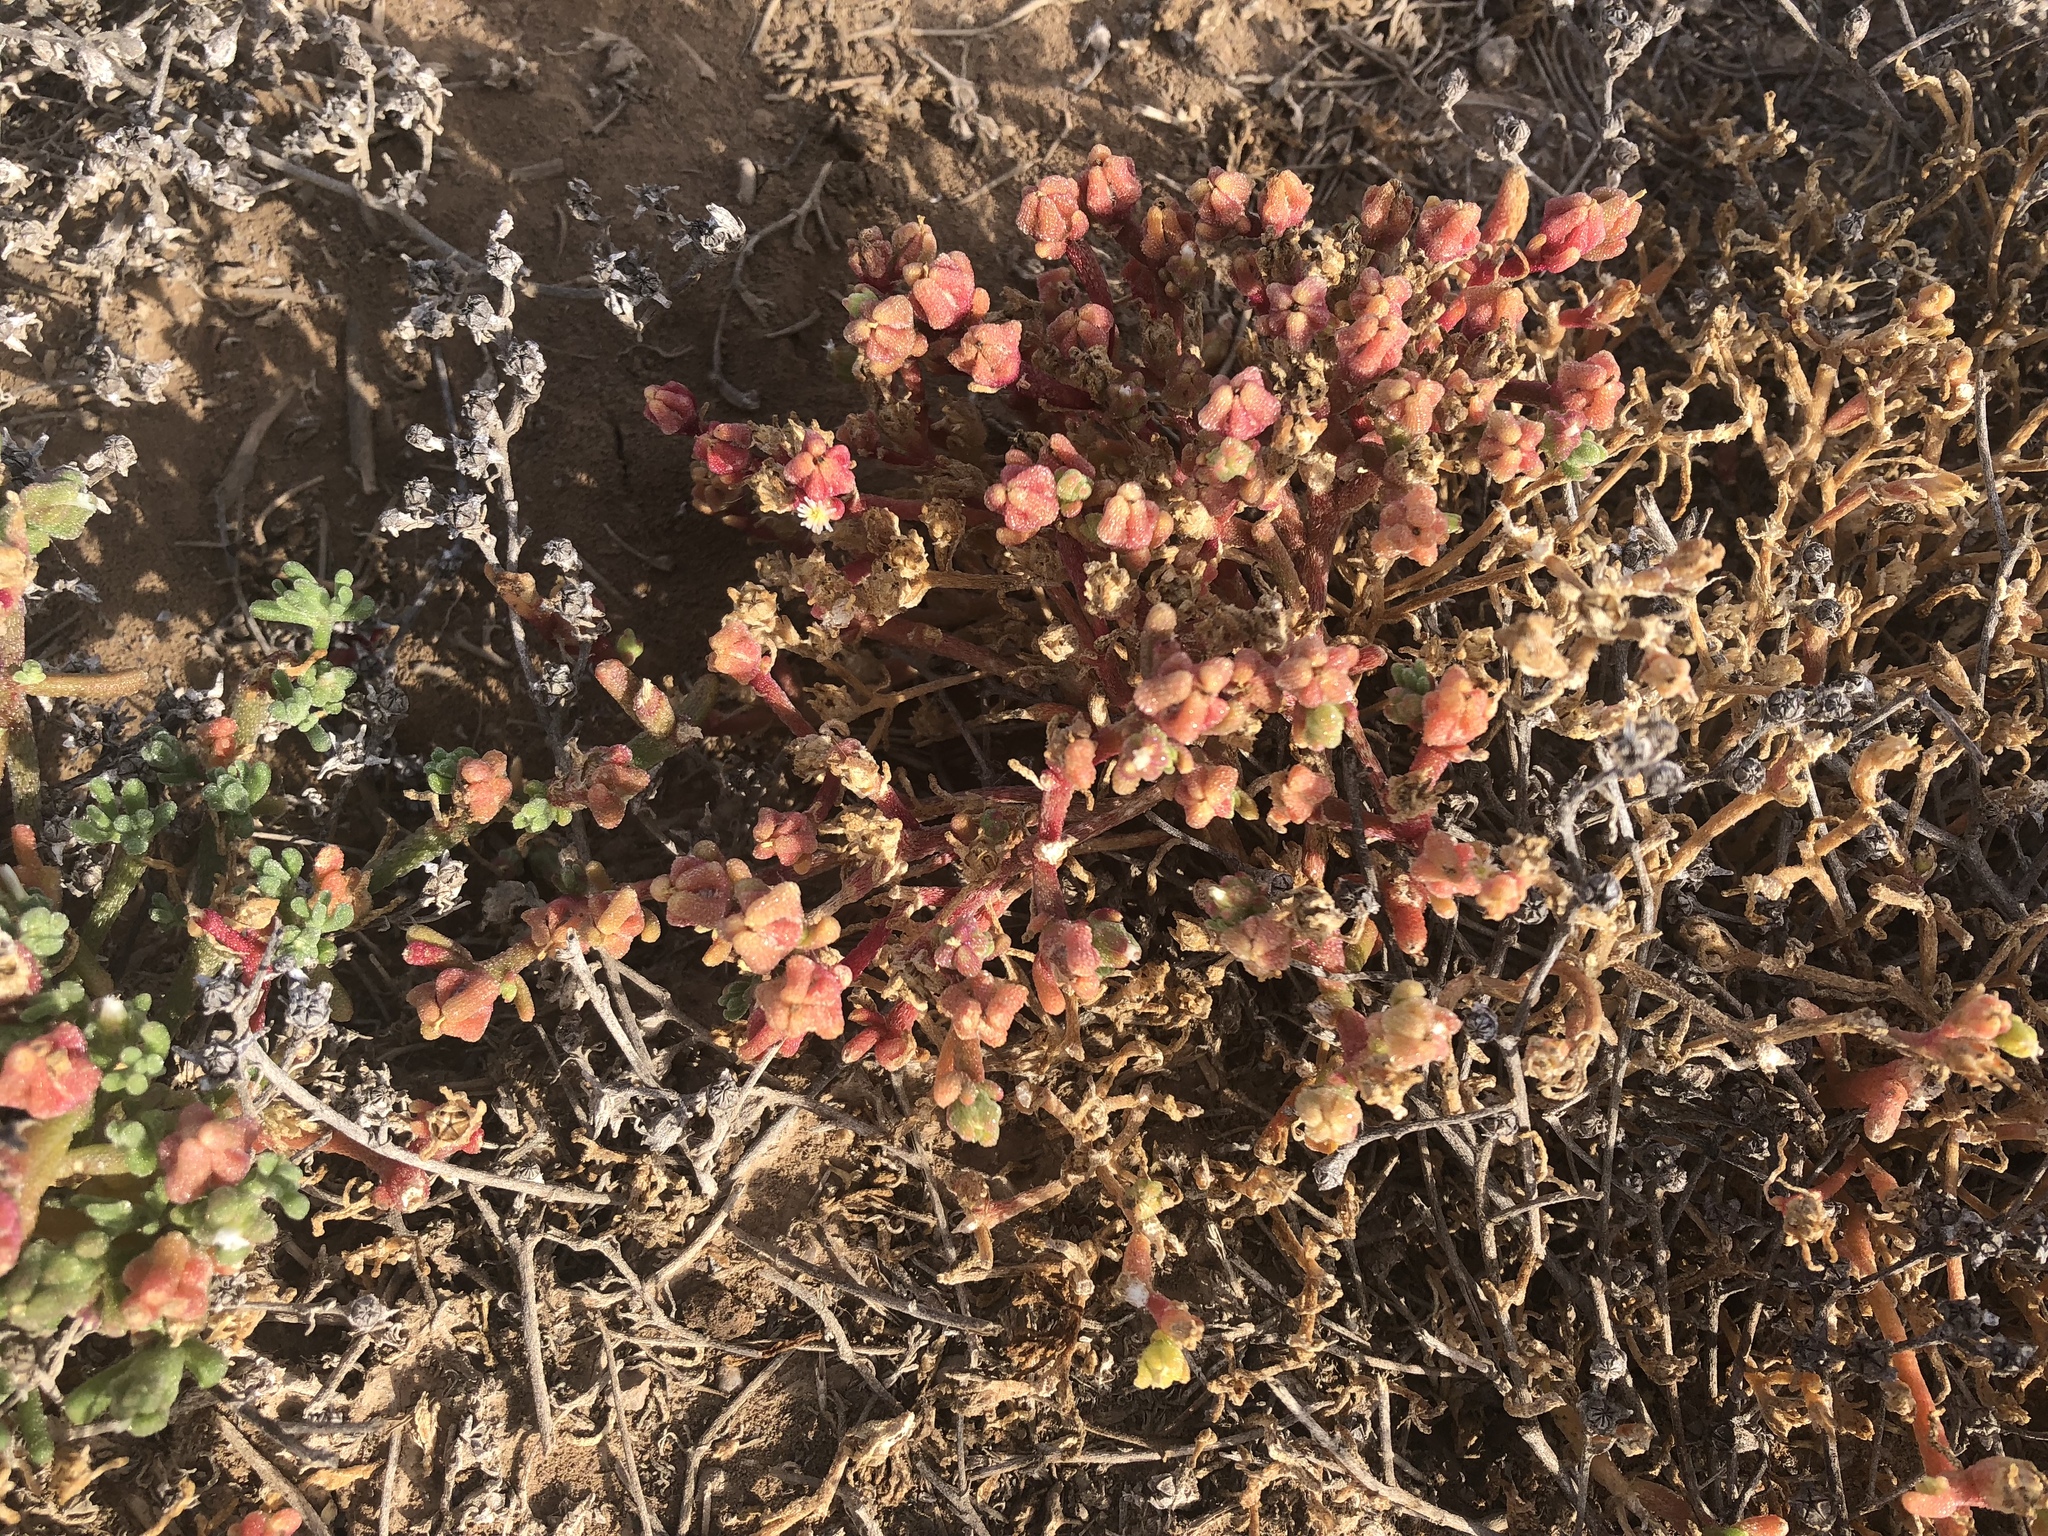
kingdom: Plantae
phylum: Tracheophyta
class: Magnoliopsida
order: Caryophyllales
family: Aizoaceae
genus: Mesembryanthemum
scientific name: Mesembryanthemum nodiflorum
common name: Slenderleaf iceplant
